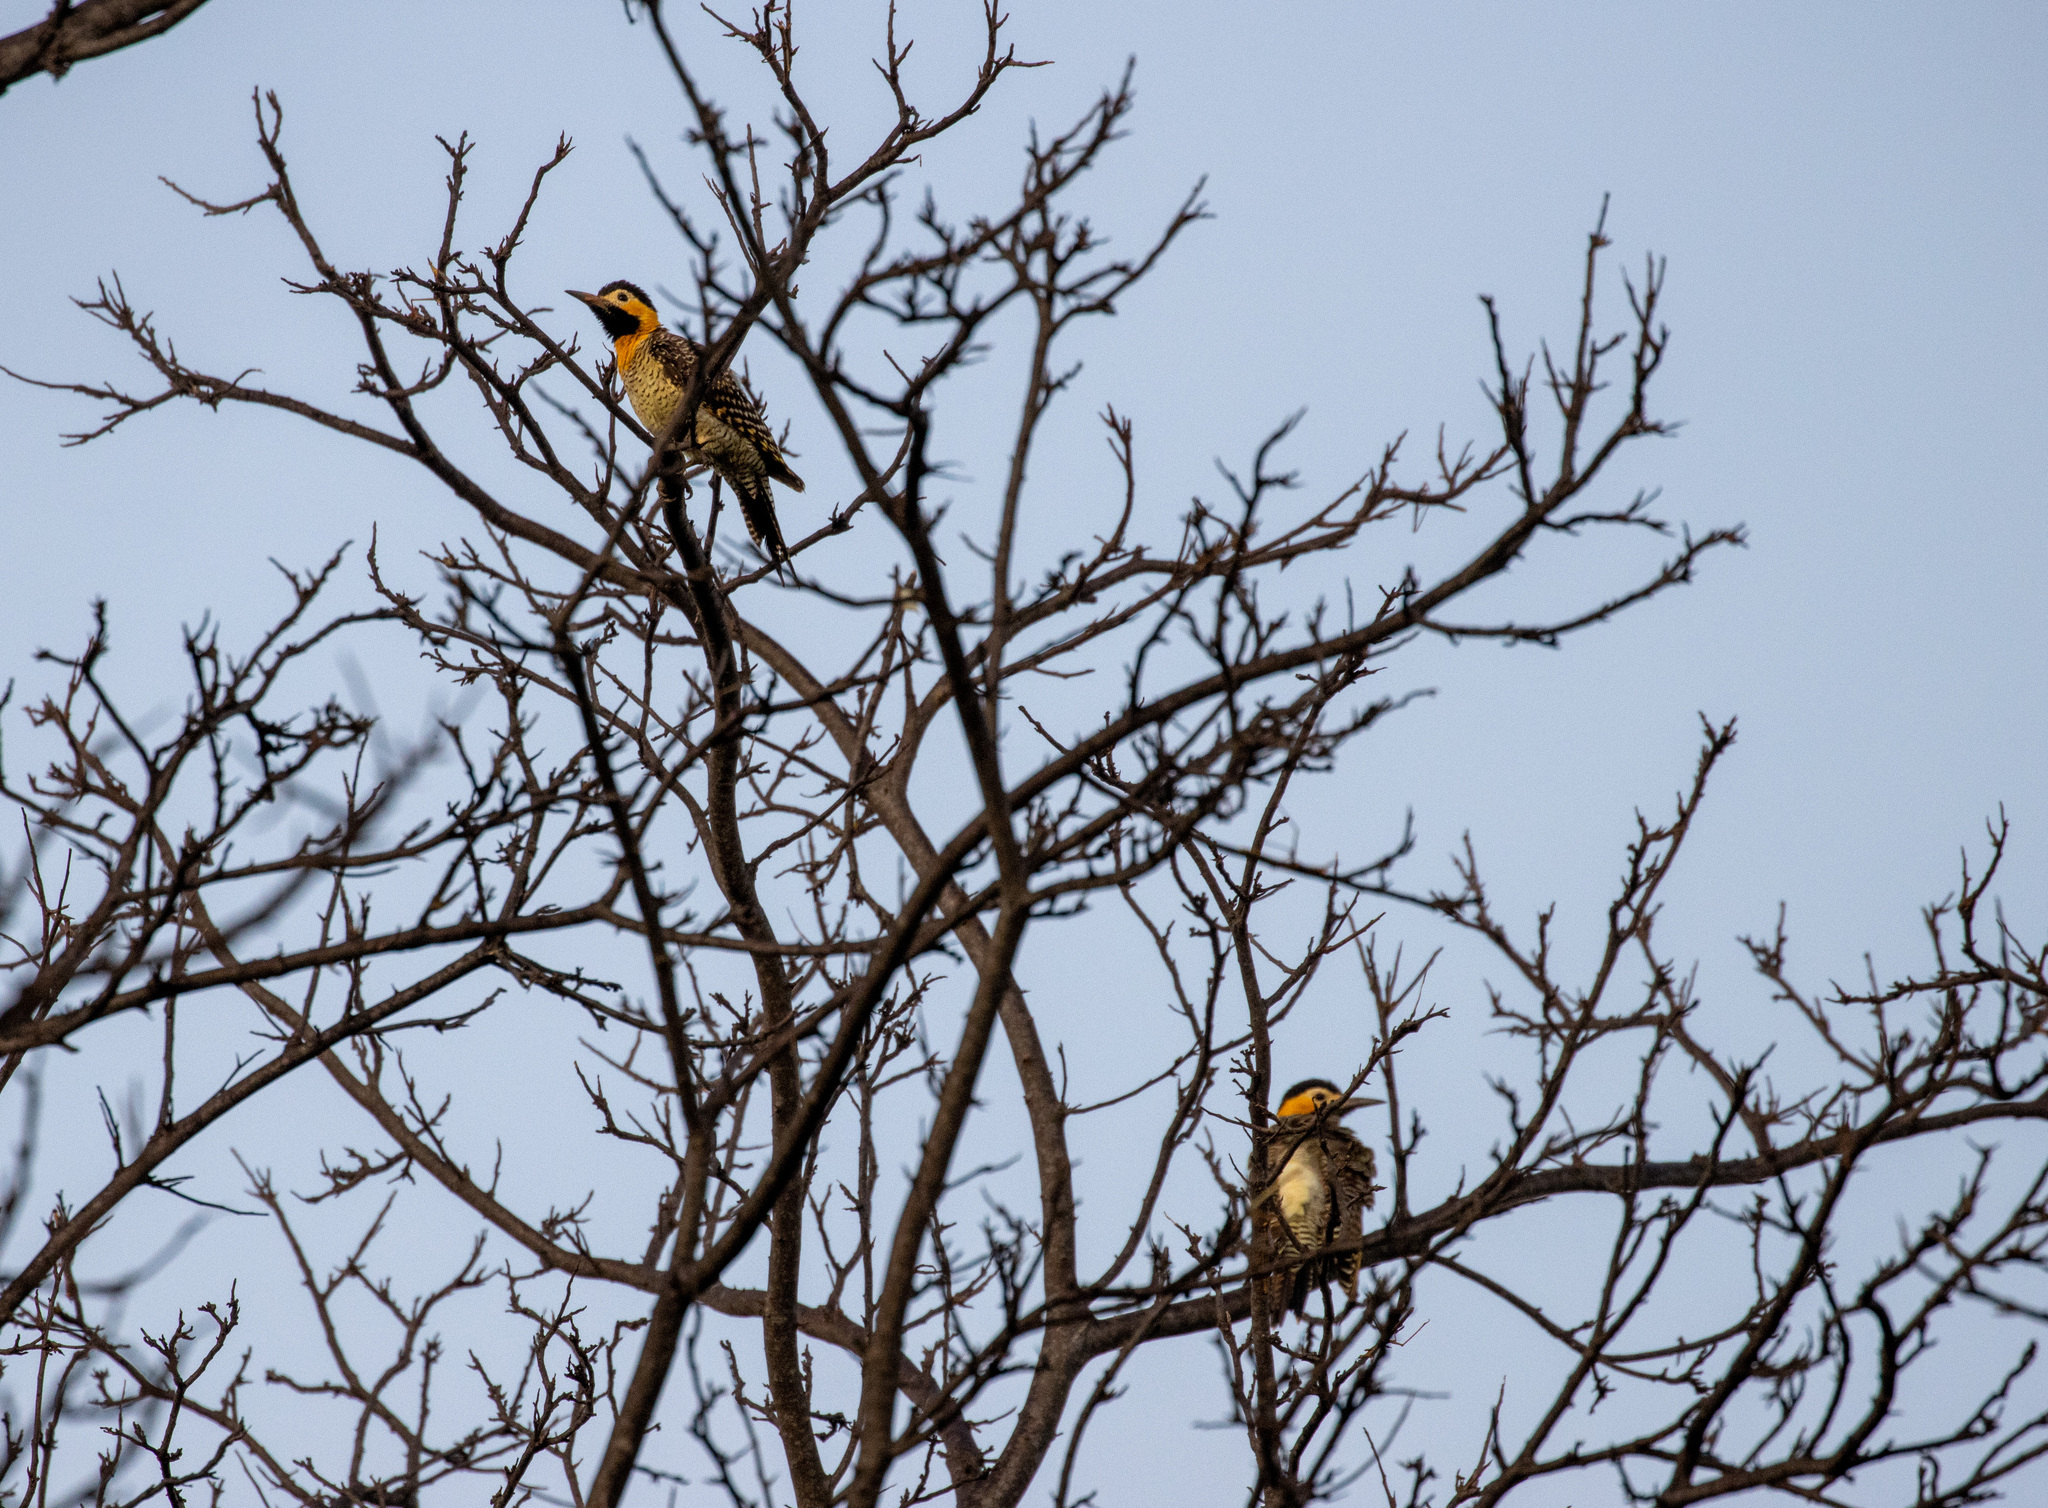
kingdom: Animalia
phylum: Chordata
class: Aves
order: Piciformes
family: Picidae
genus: Colaptes
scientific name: Colaptes campestris
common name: Campo flicker
